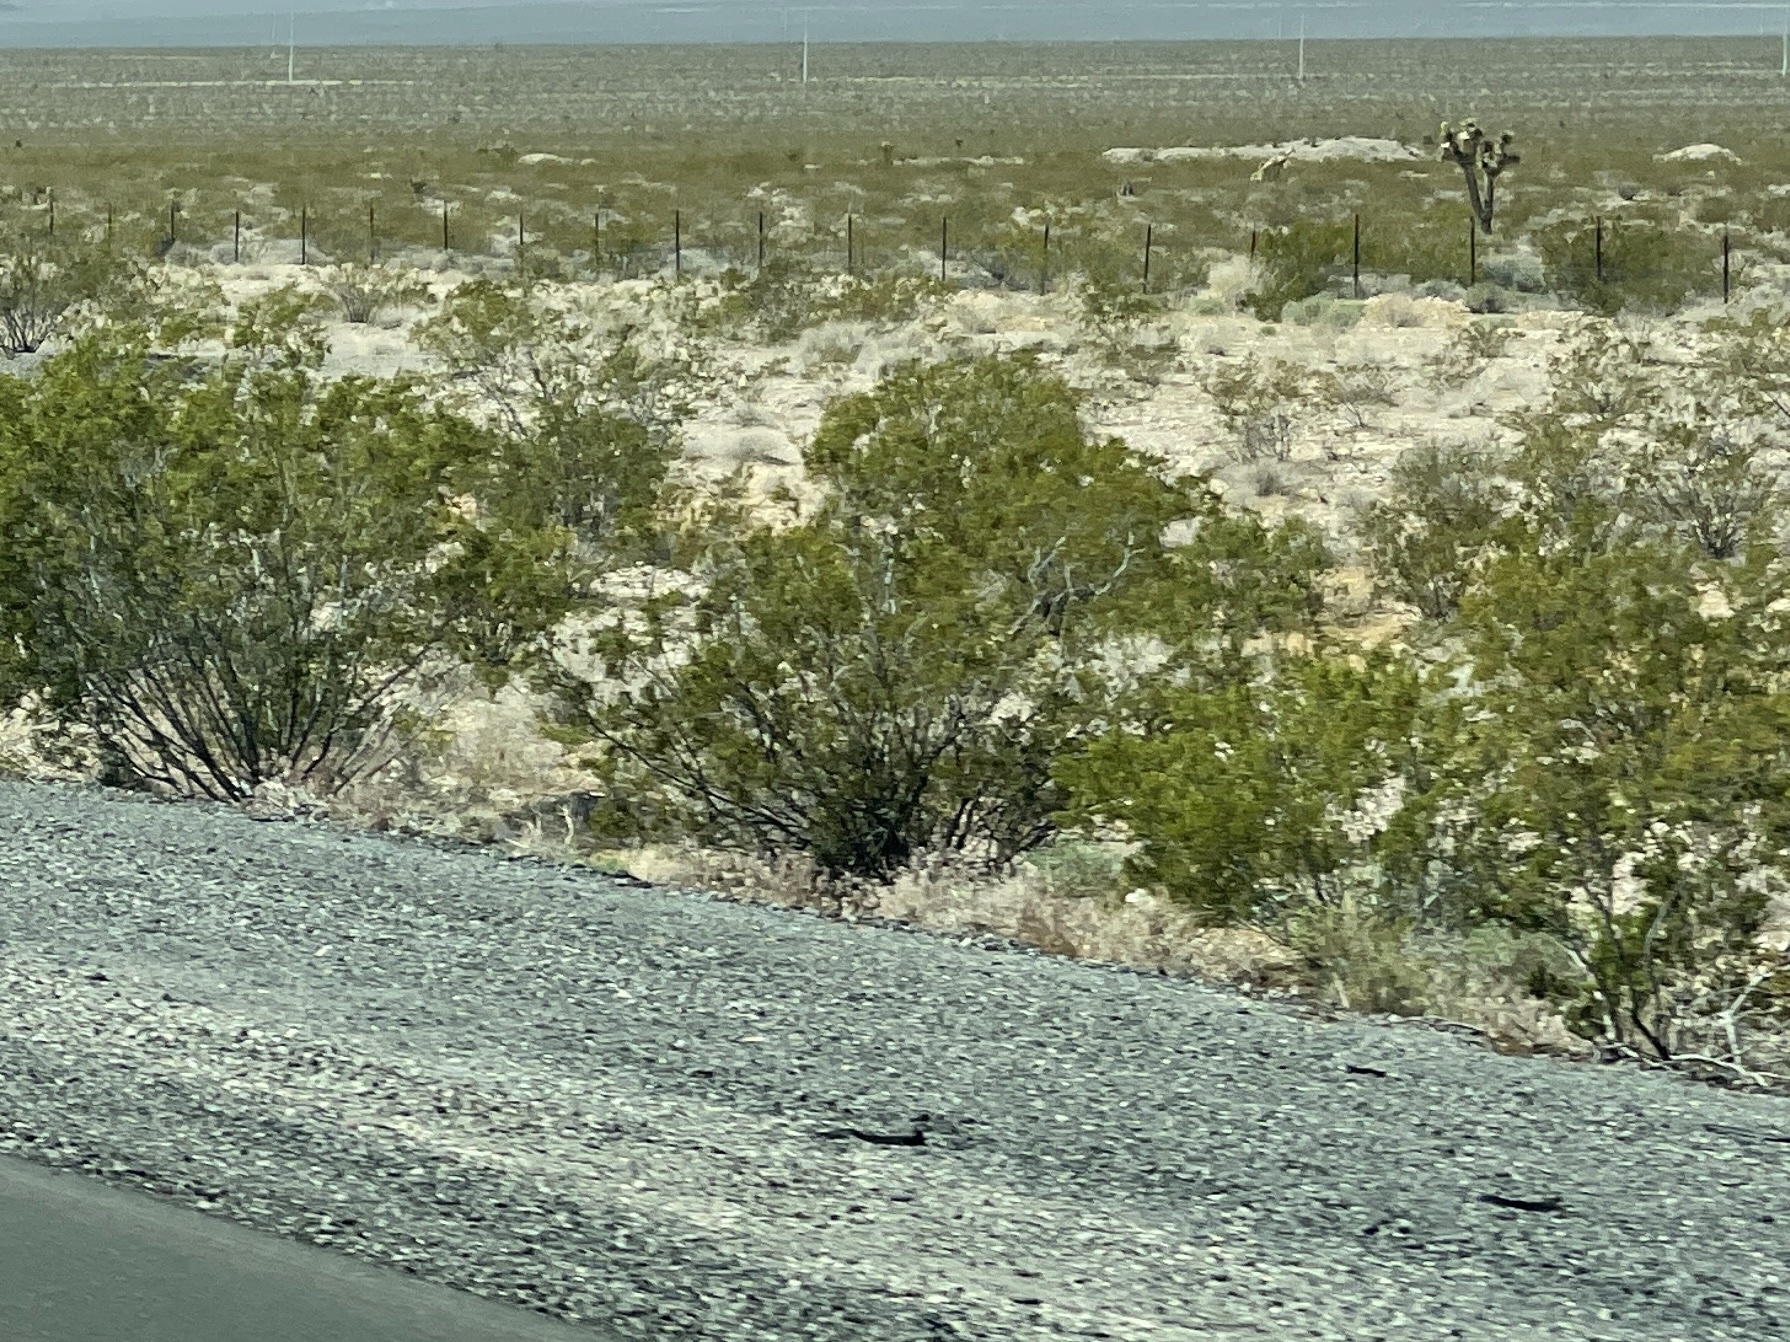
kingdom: Plantae
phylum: Tracheophyta
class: Magnoliopsida
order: Zygophyllales
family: Zygophyllaceae
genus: Larrea
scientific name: Larrea tridentata
